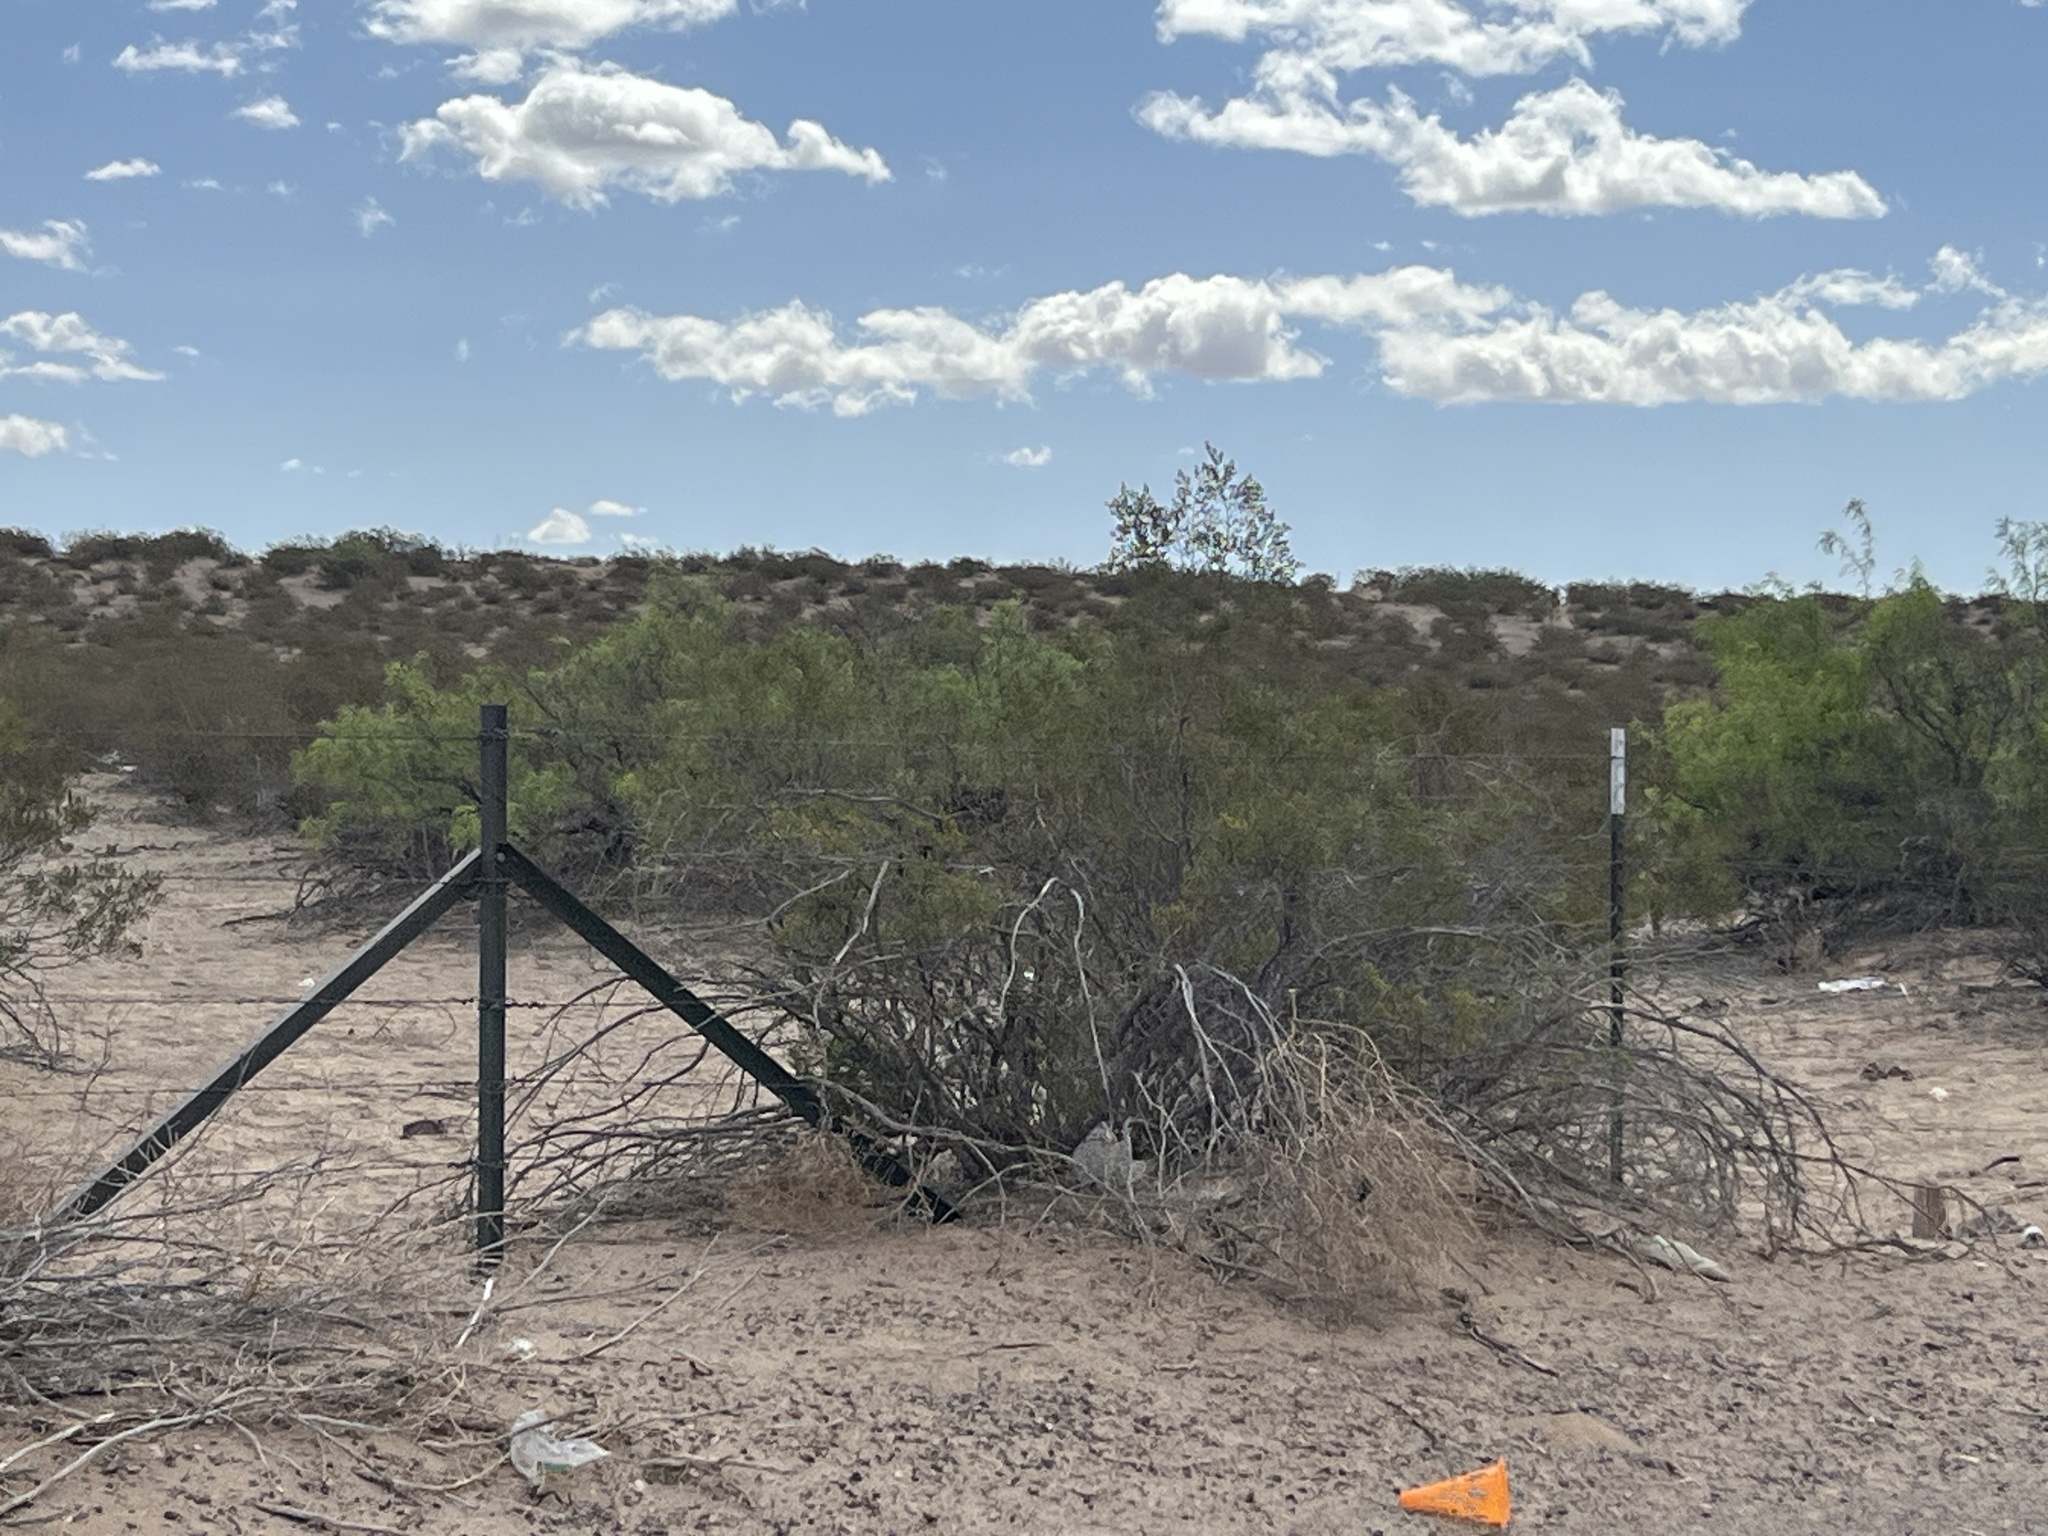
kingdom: Plantae
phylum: Tracheophyta
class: Magnoliopsida
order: Zygophyllales
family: Zygophyllaceae
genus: Larrea
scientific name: Larrea tridentata
